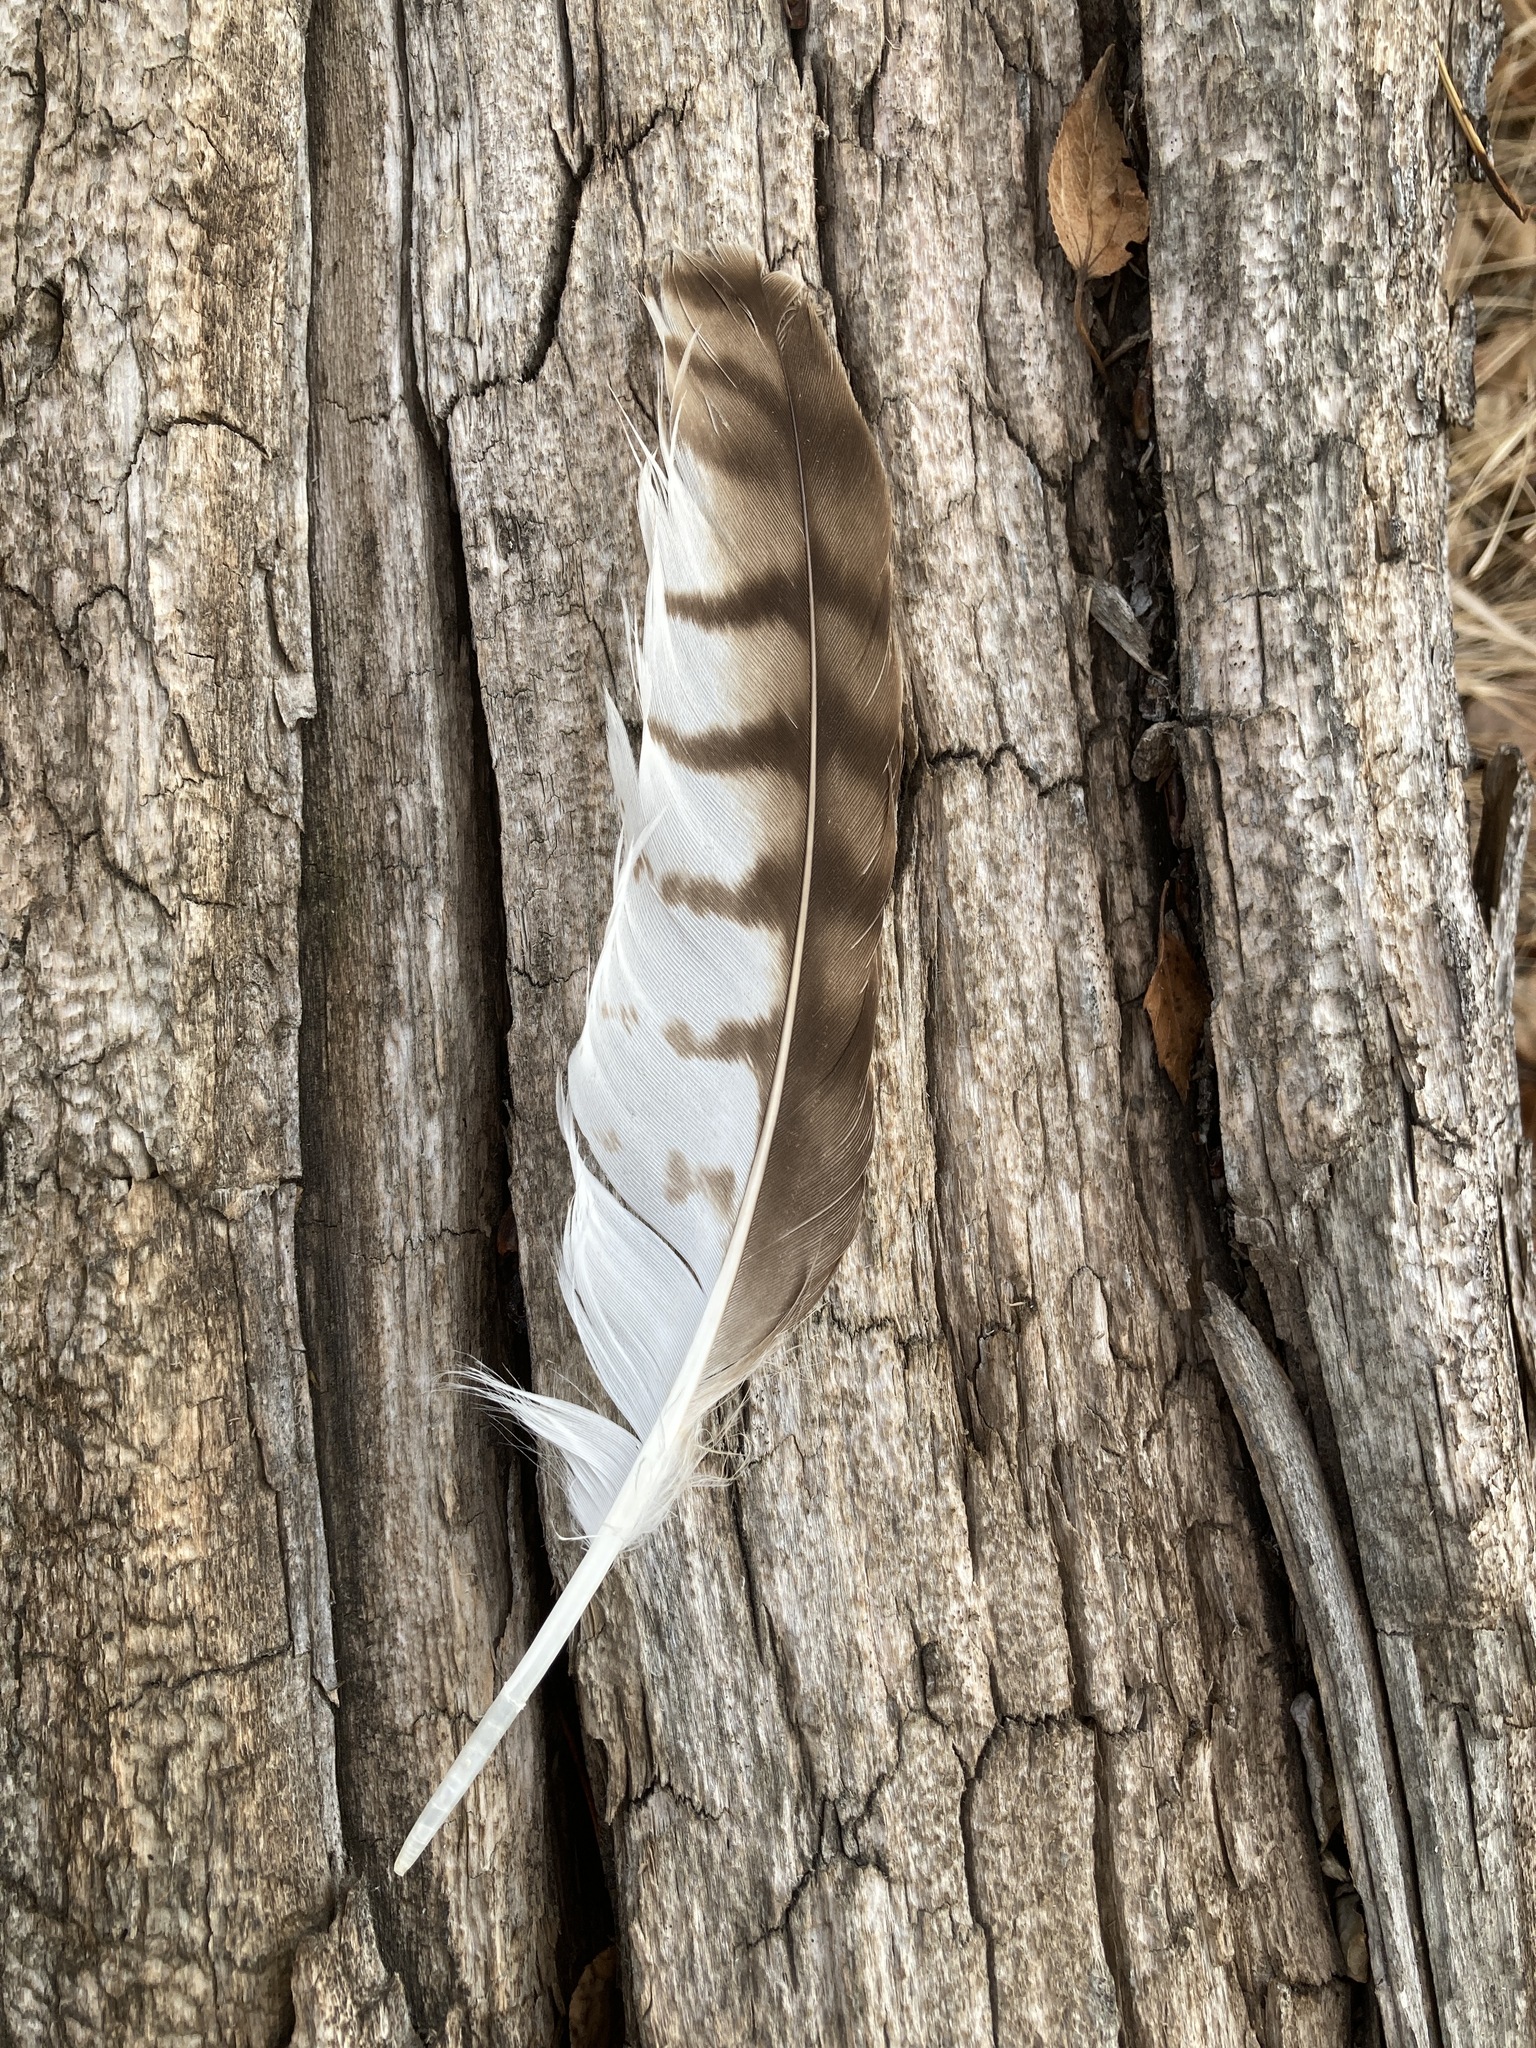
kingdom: Animalia
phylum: Chordata
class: Aves
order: Accipitriformes
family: Accipitridae
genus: Buteo
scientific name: Buteo jamaicensis
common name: Red-tailed hawk
